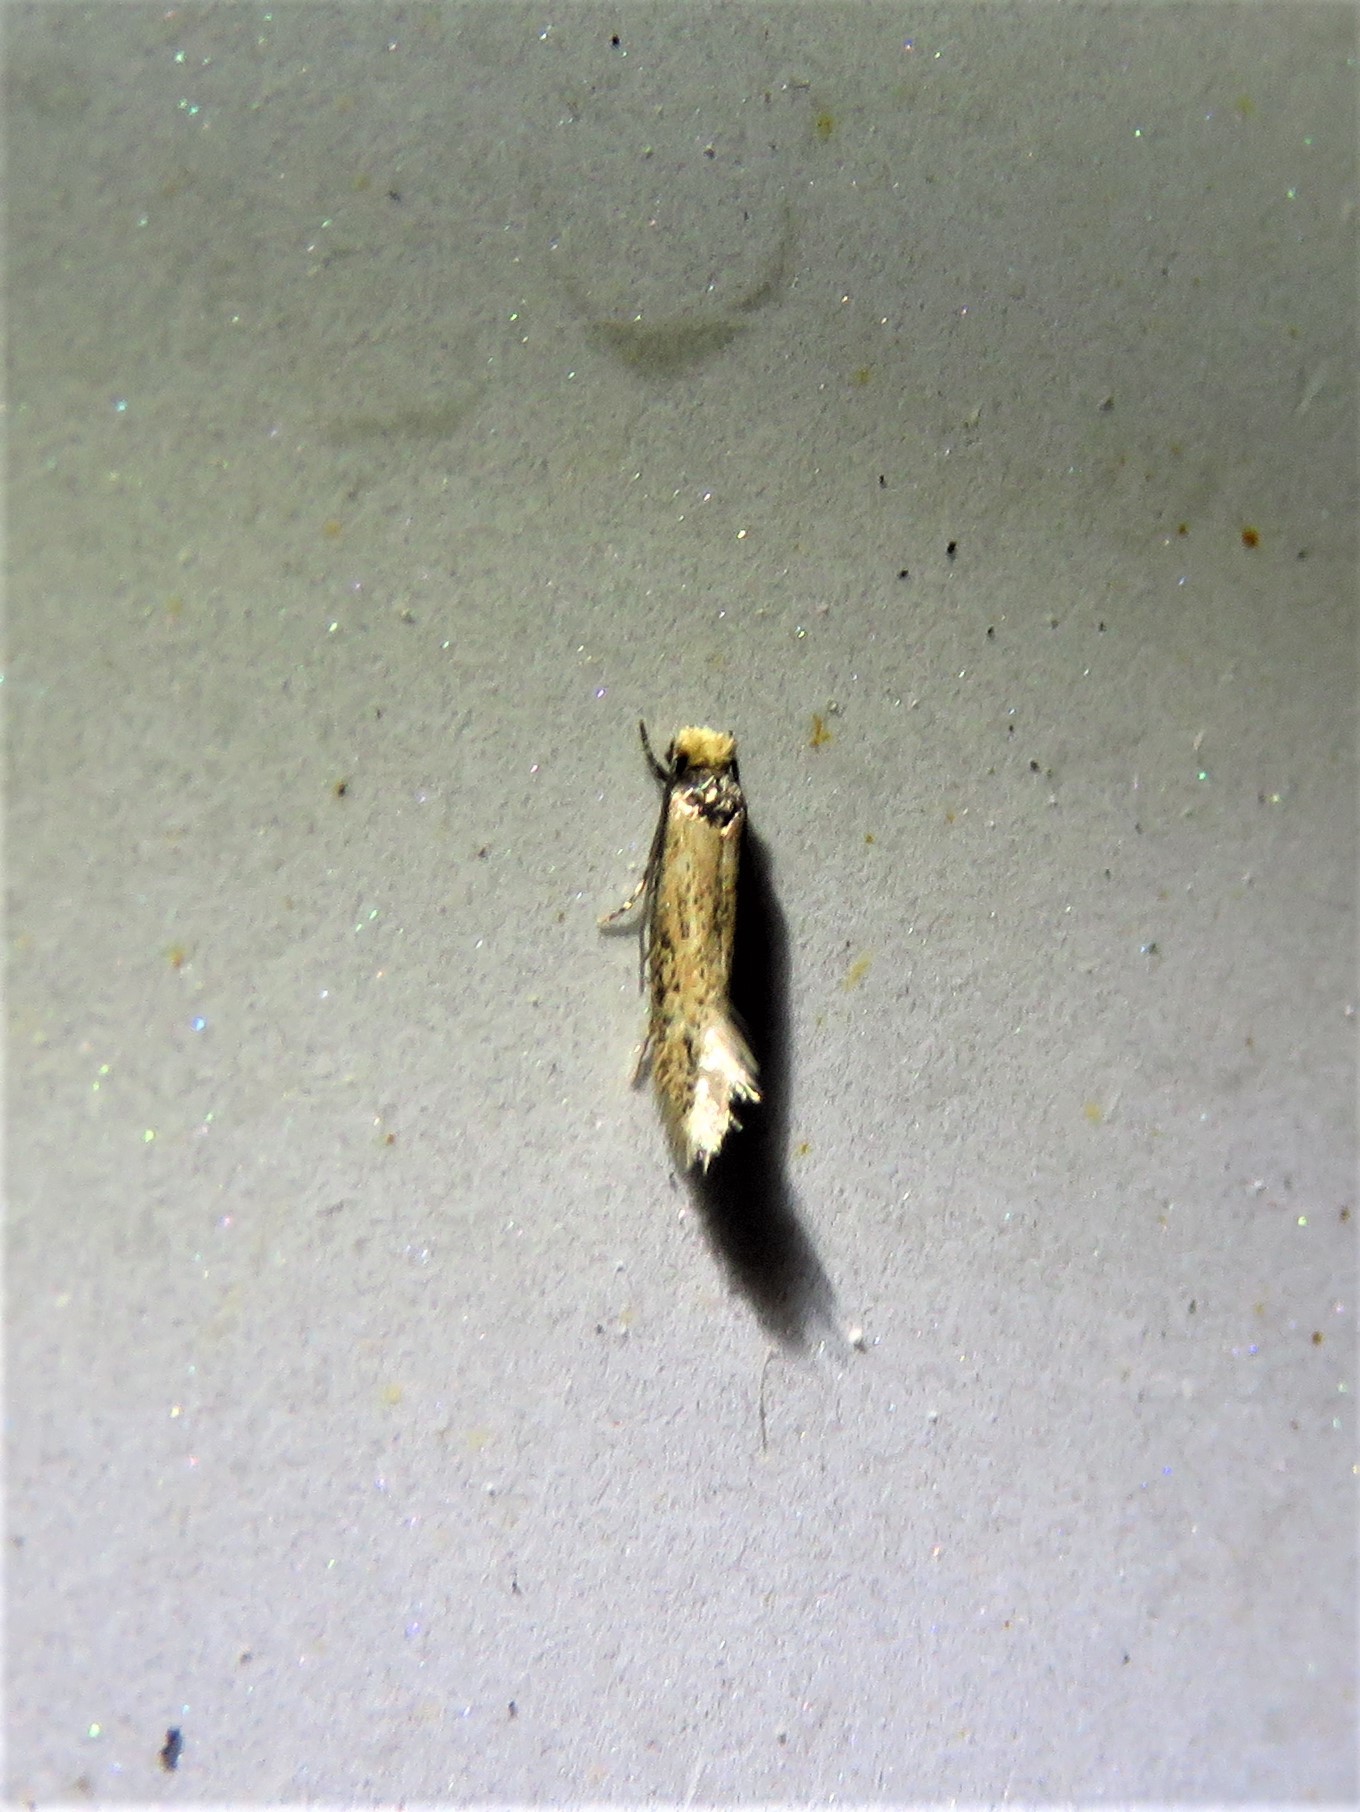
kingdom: Animalia
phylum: Arthropoda
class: Insecta
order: Lepidoptera
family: Meessiidae
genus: Homostinea
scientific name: Homostinea curviliniella
